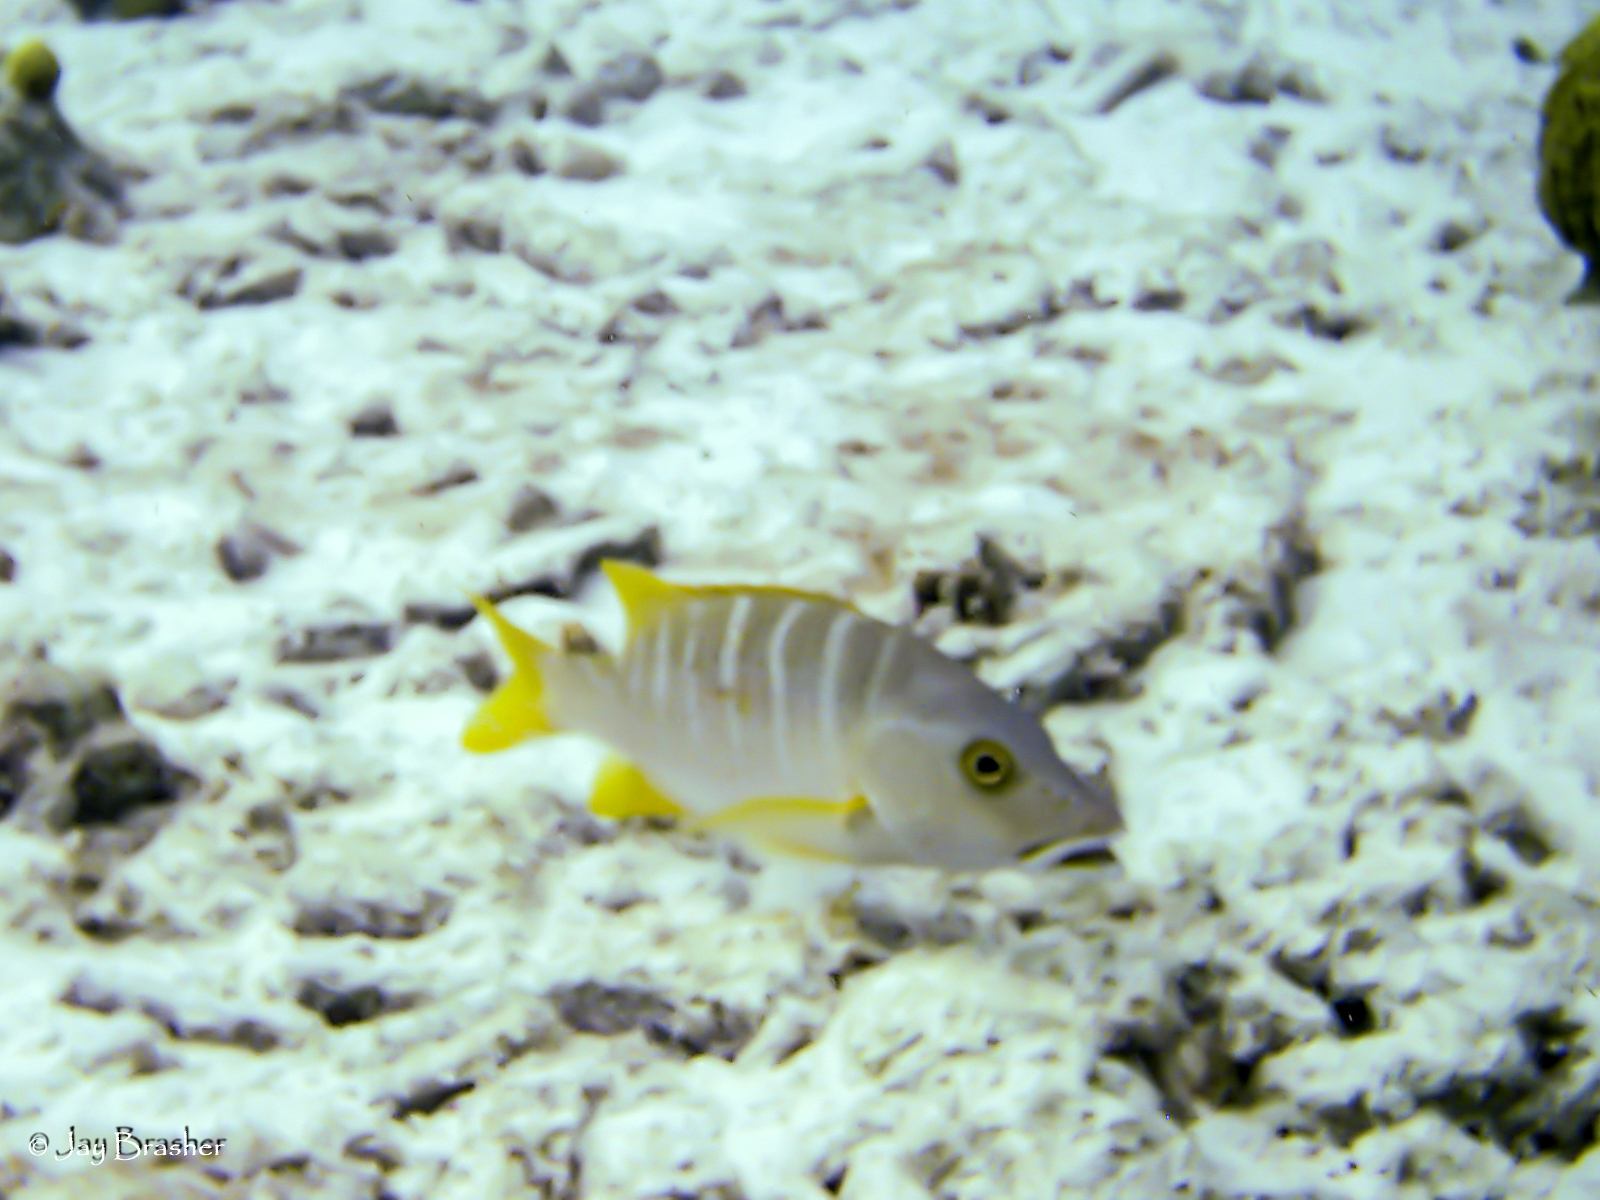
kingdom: Animalia
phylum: Chordata
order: Perciformes
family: Lutjanidae
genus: Lutjanus
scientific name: Lutjanus apodus
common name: Schoolmaster
